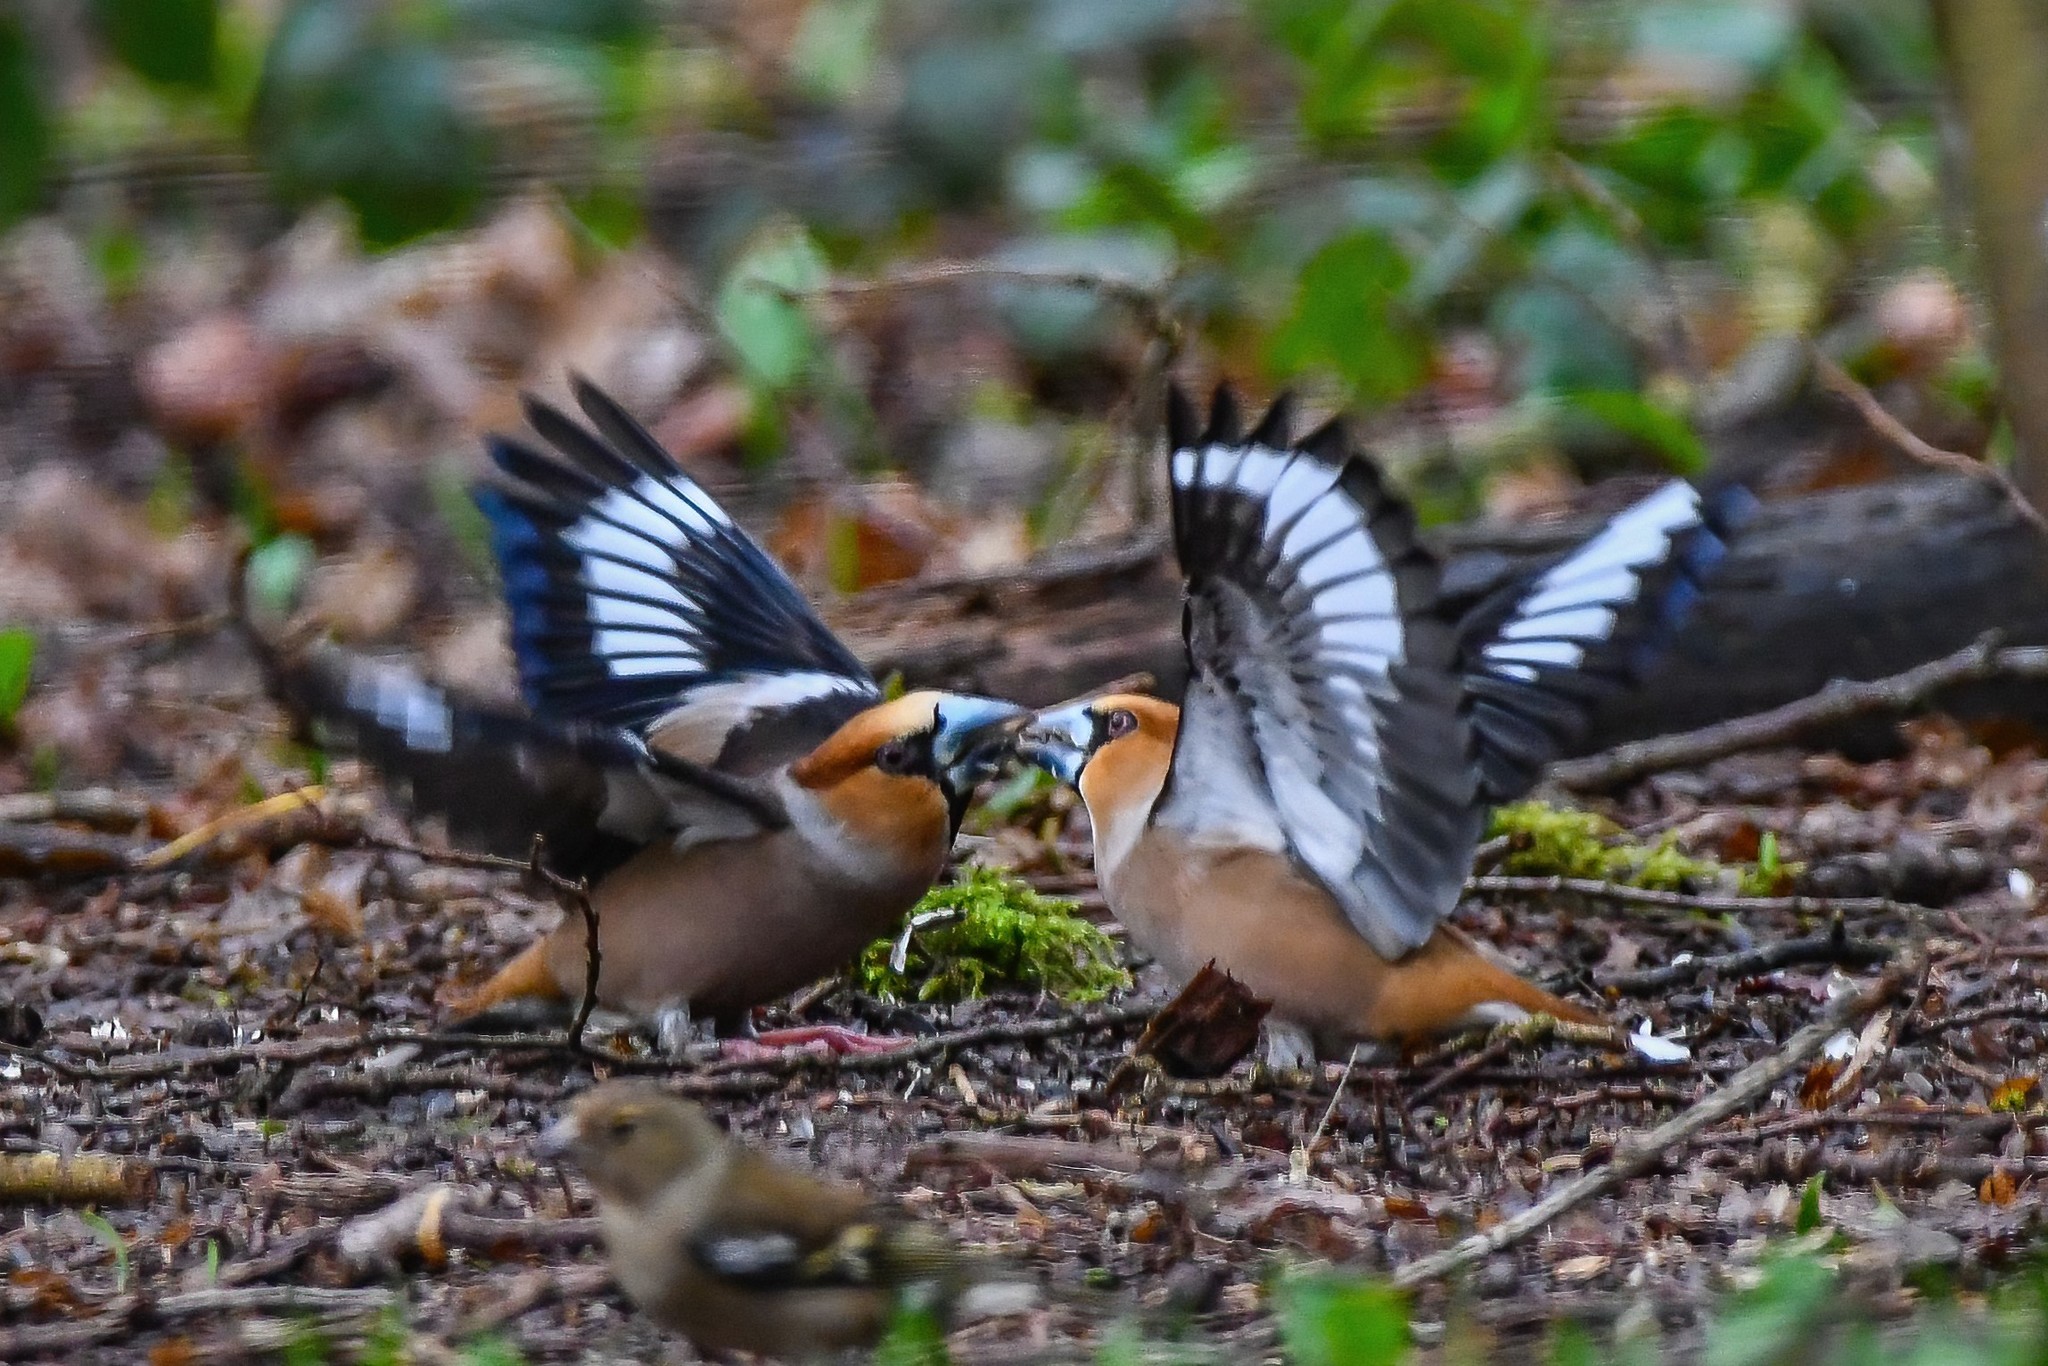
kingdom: Animalia
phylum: Chordata
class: Aves
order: Passeriformes
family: Fringillidae
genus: Coccothraustes
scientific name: Coccothraustes coccothraustes
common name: Hawfinch
